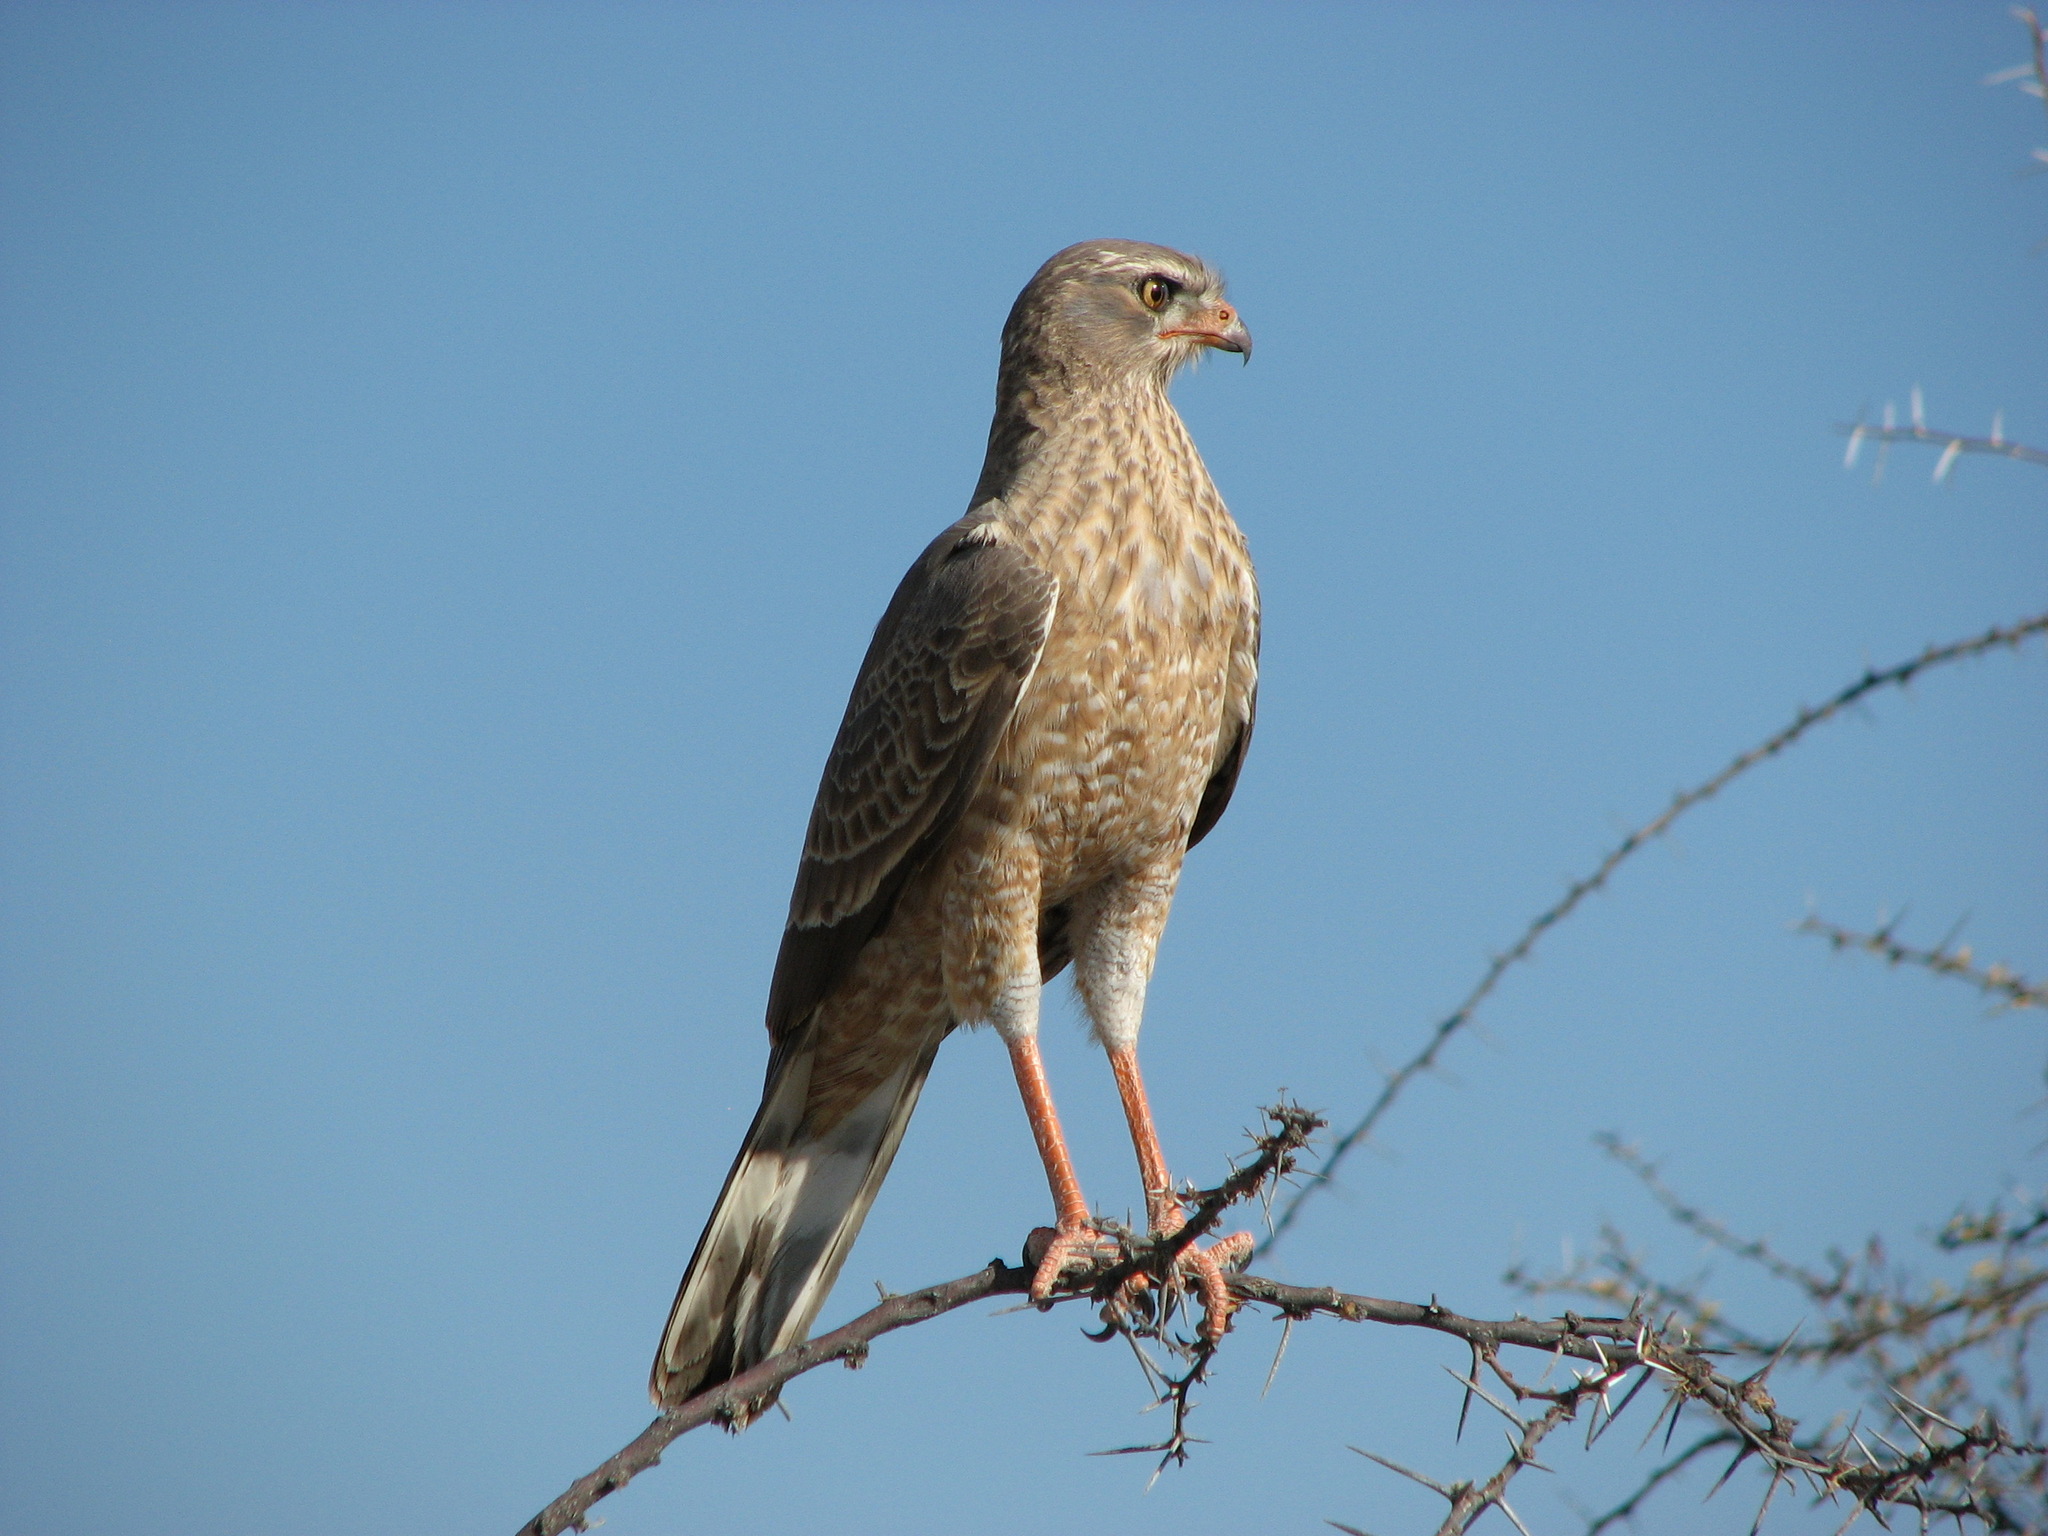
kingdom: Animalia
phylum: Chordata
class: Aves
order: Accipitriformes
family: Accipitridae
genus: Melierax
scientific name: Melierax canorus
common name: Pale chanting-goshawk
